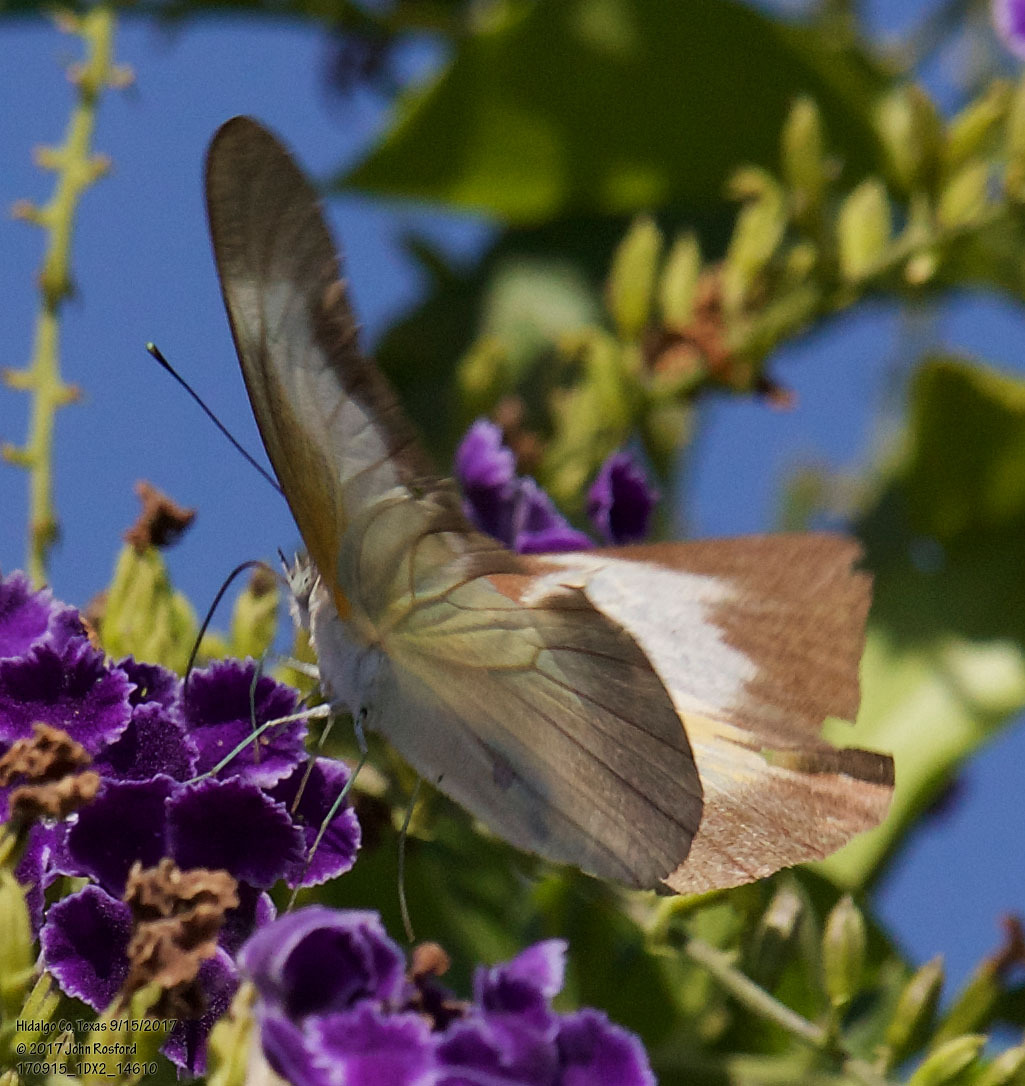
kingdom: Animalia
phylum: Arthropoda
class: Insecta
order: Lepidoptera
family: Pieridae
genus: Glutophrissa
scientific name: Glutophrissa drusilla
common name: Florida white
